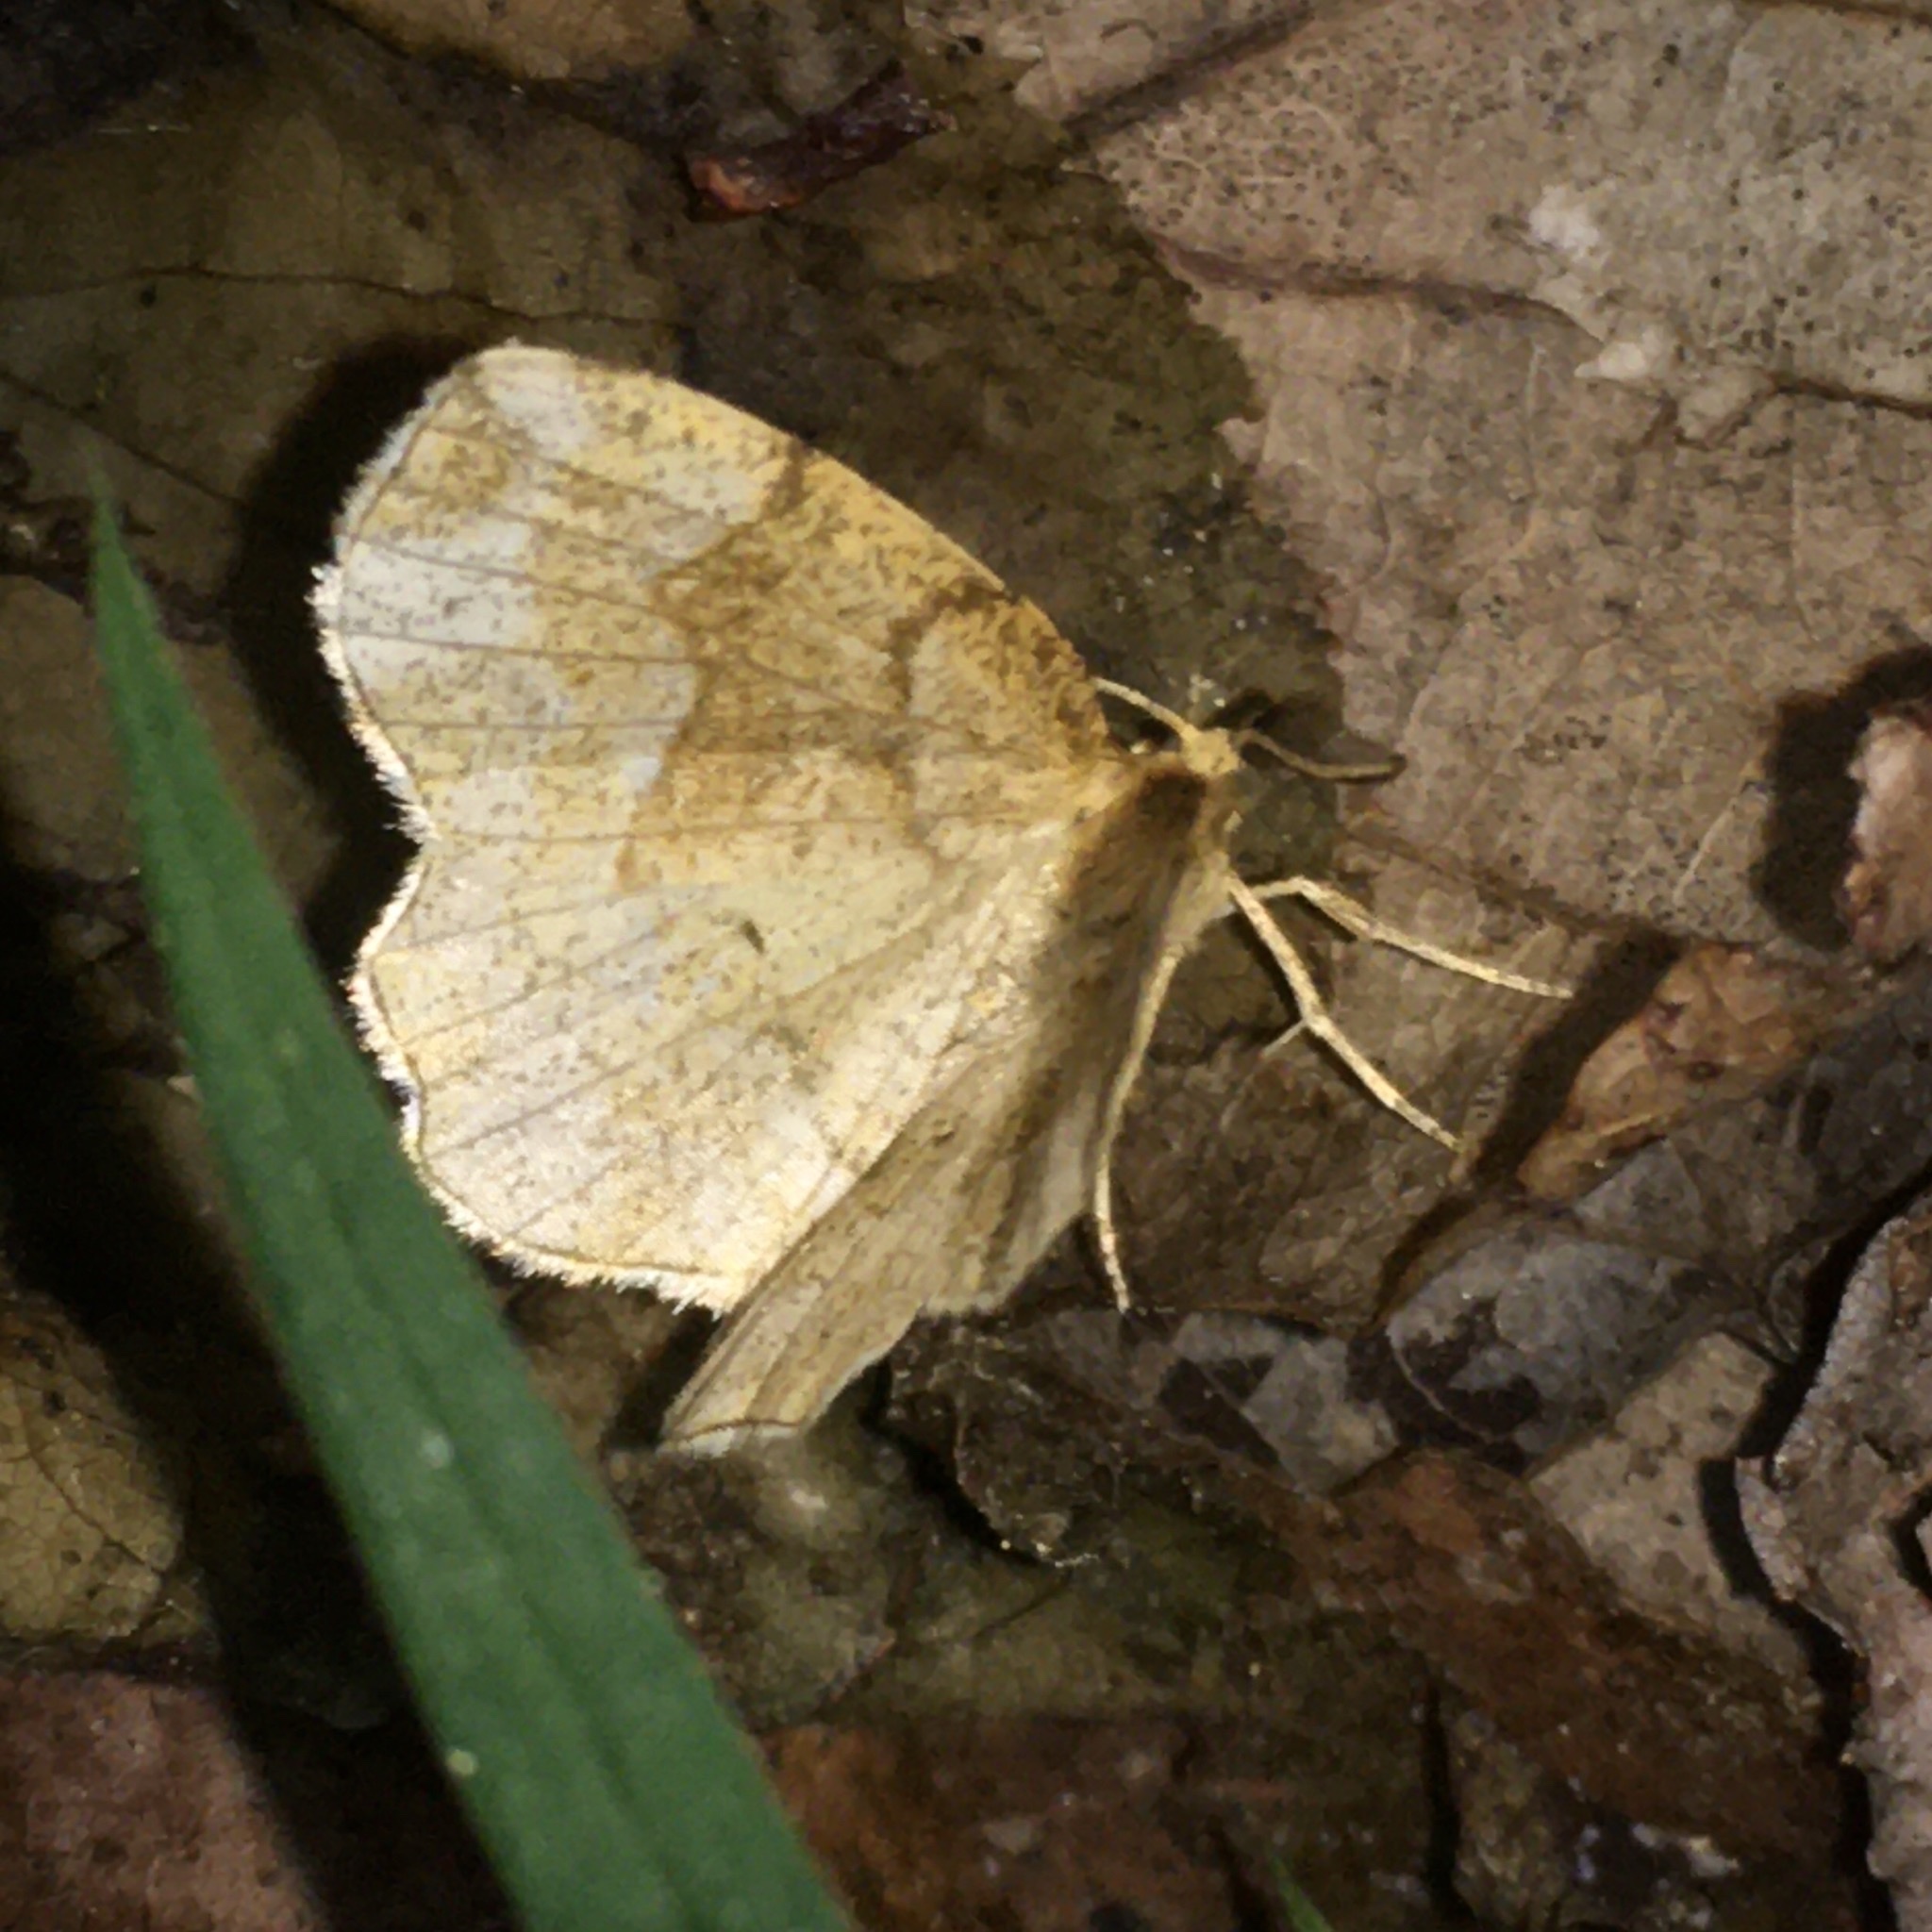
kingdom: Animalia
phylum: Arthropoda
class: Insecta
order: Lepidoptera
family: Geometridae
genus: Cepphis
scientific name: Cepphis advenaria
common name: Little thorn
